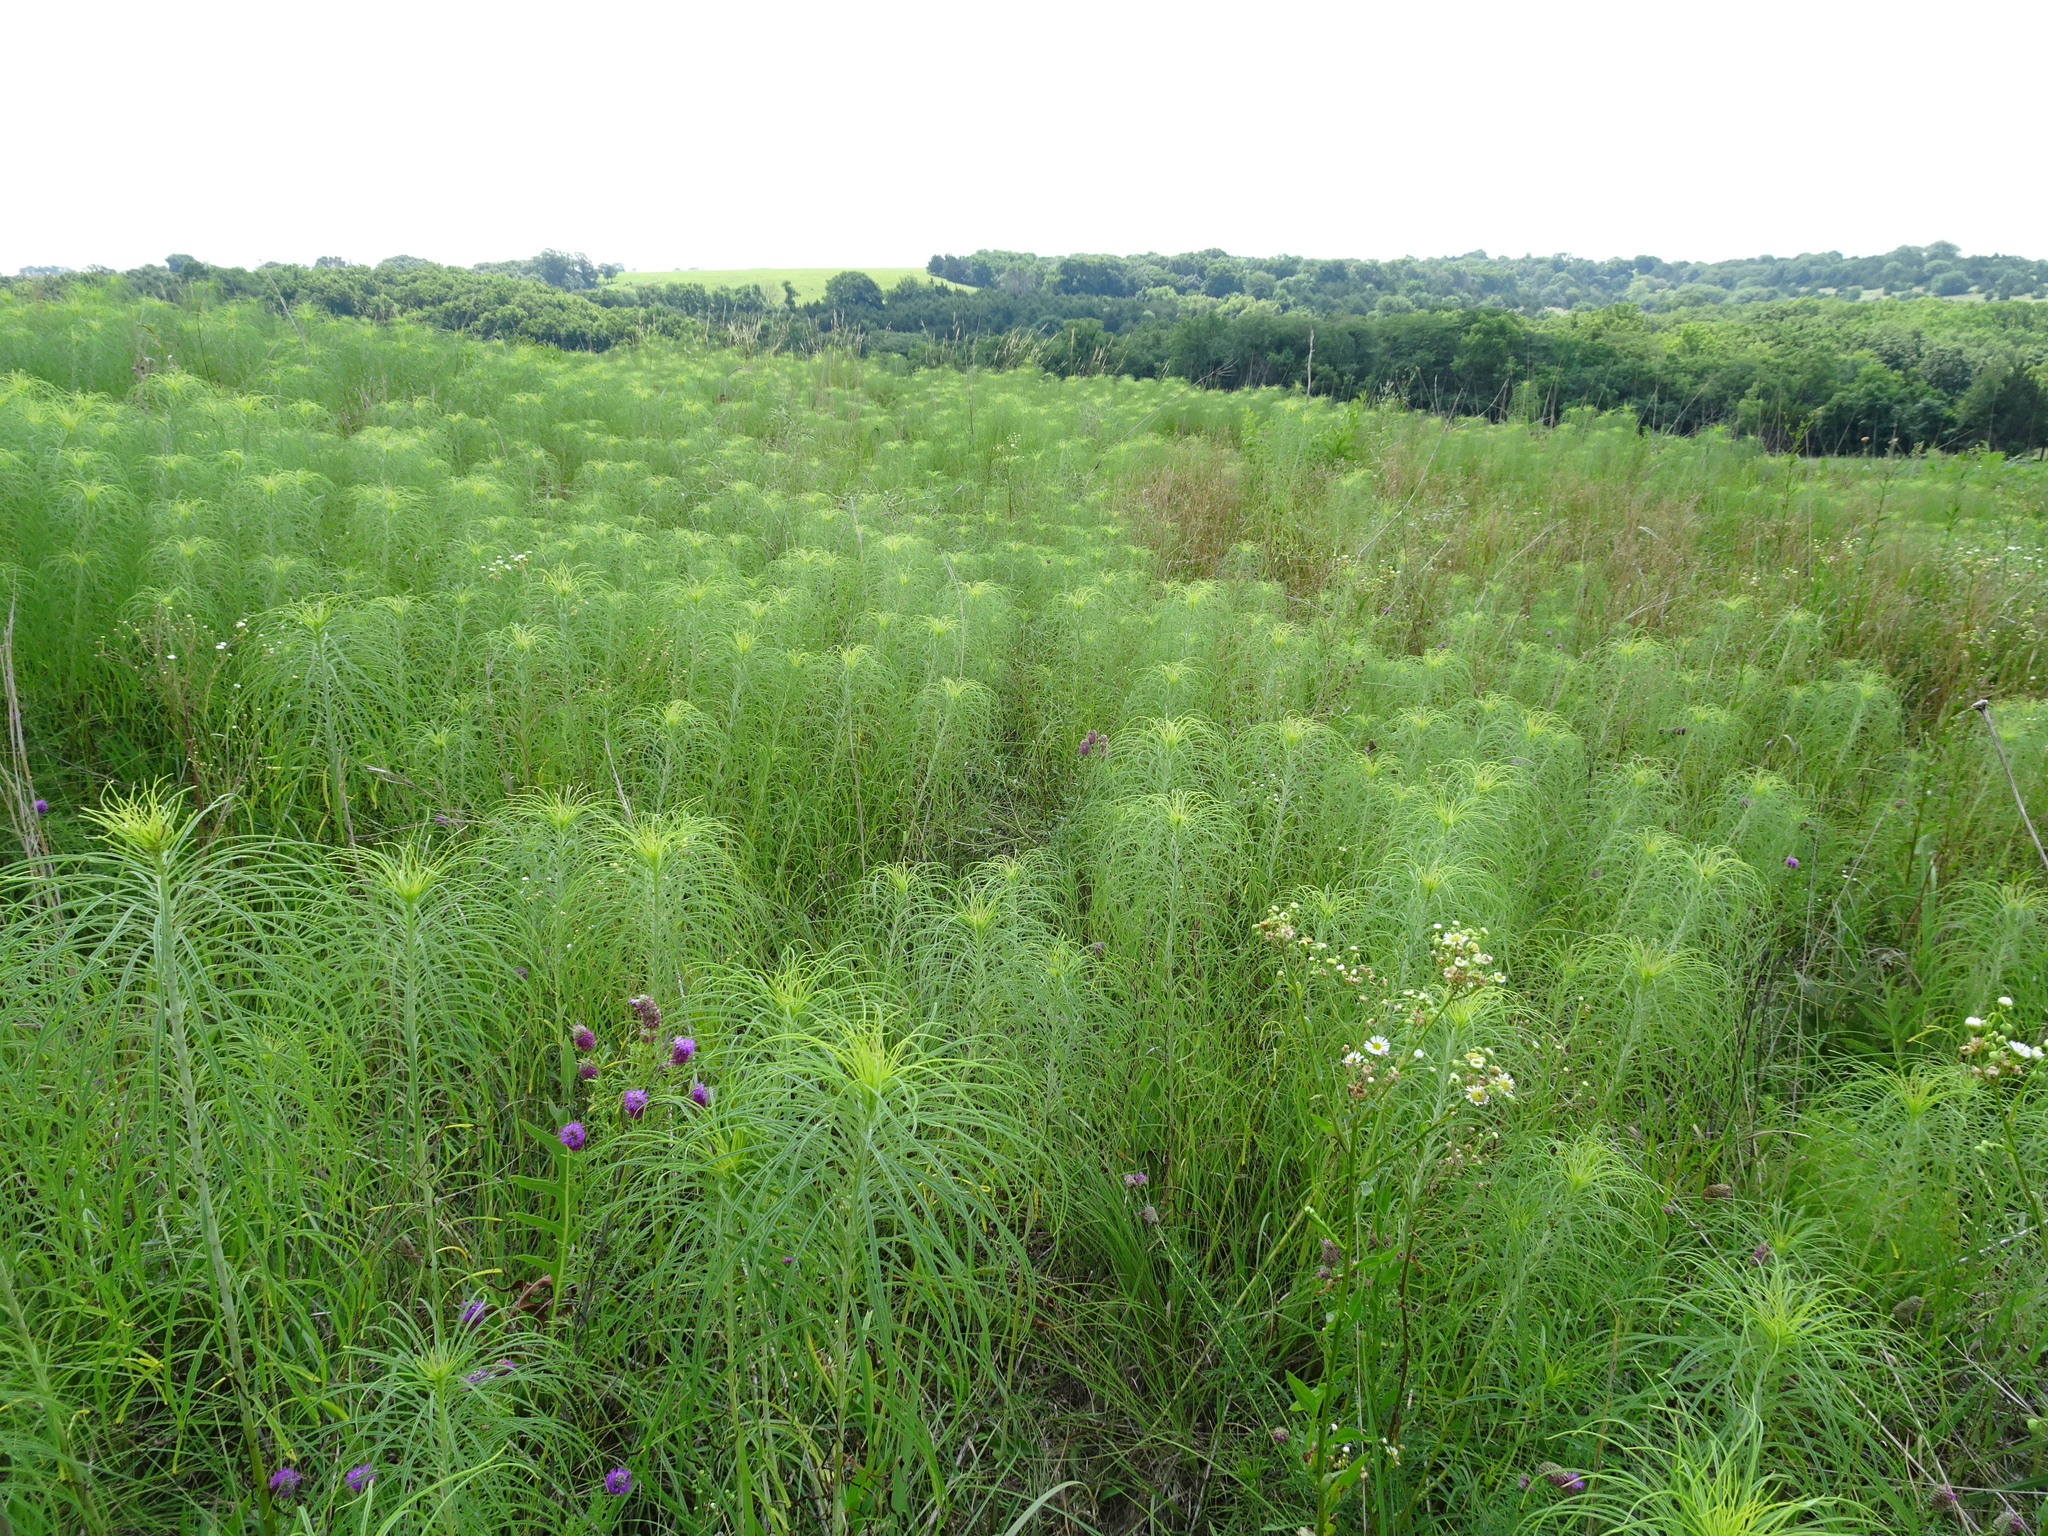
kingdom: Plantae
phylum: Tracheophyta
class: Magnoliopsida
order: Asterales
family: Asteraceae
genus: Helianthus
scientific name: Helianthus salicifolius
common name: Willowleaf sunflower
